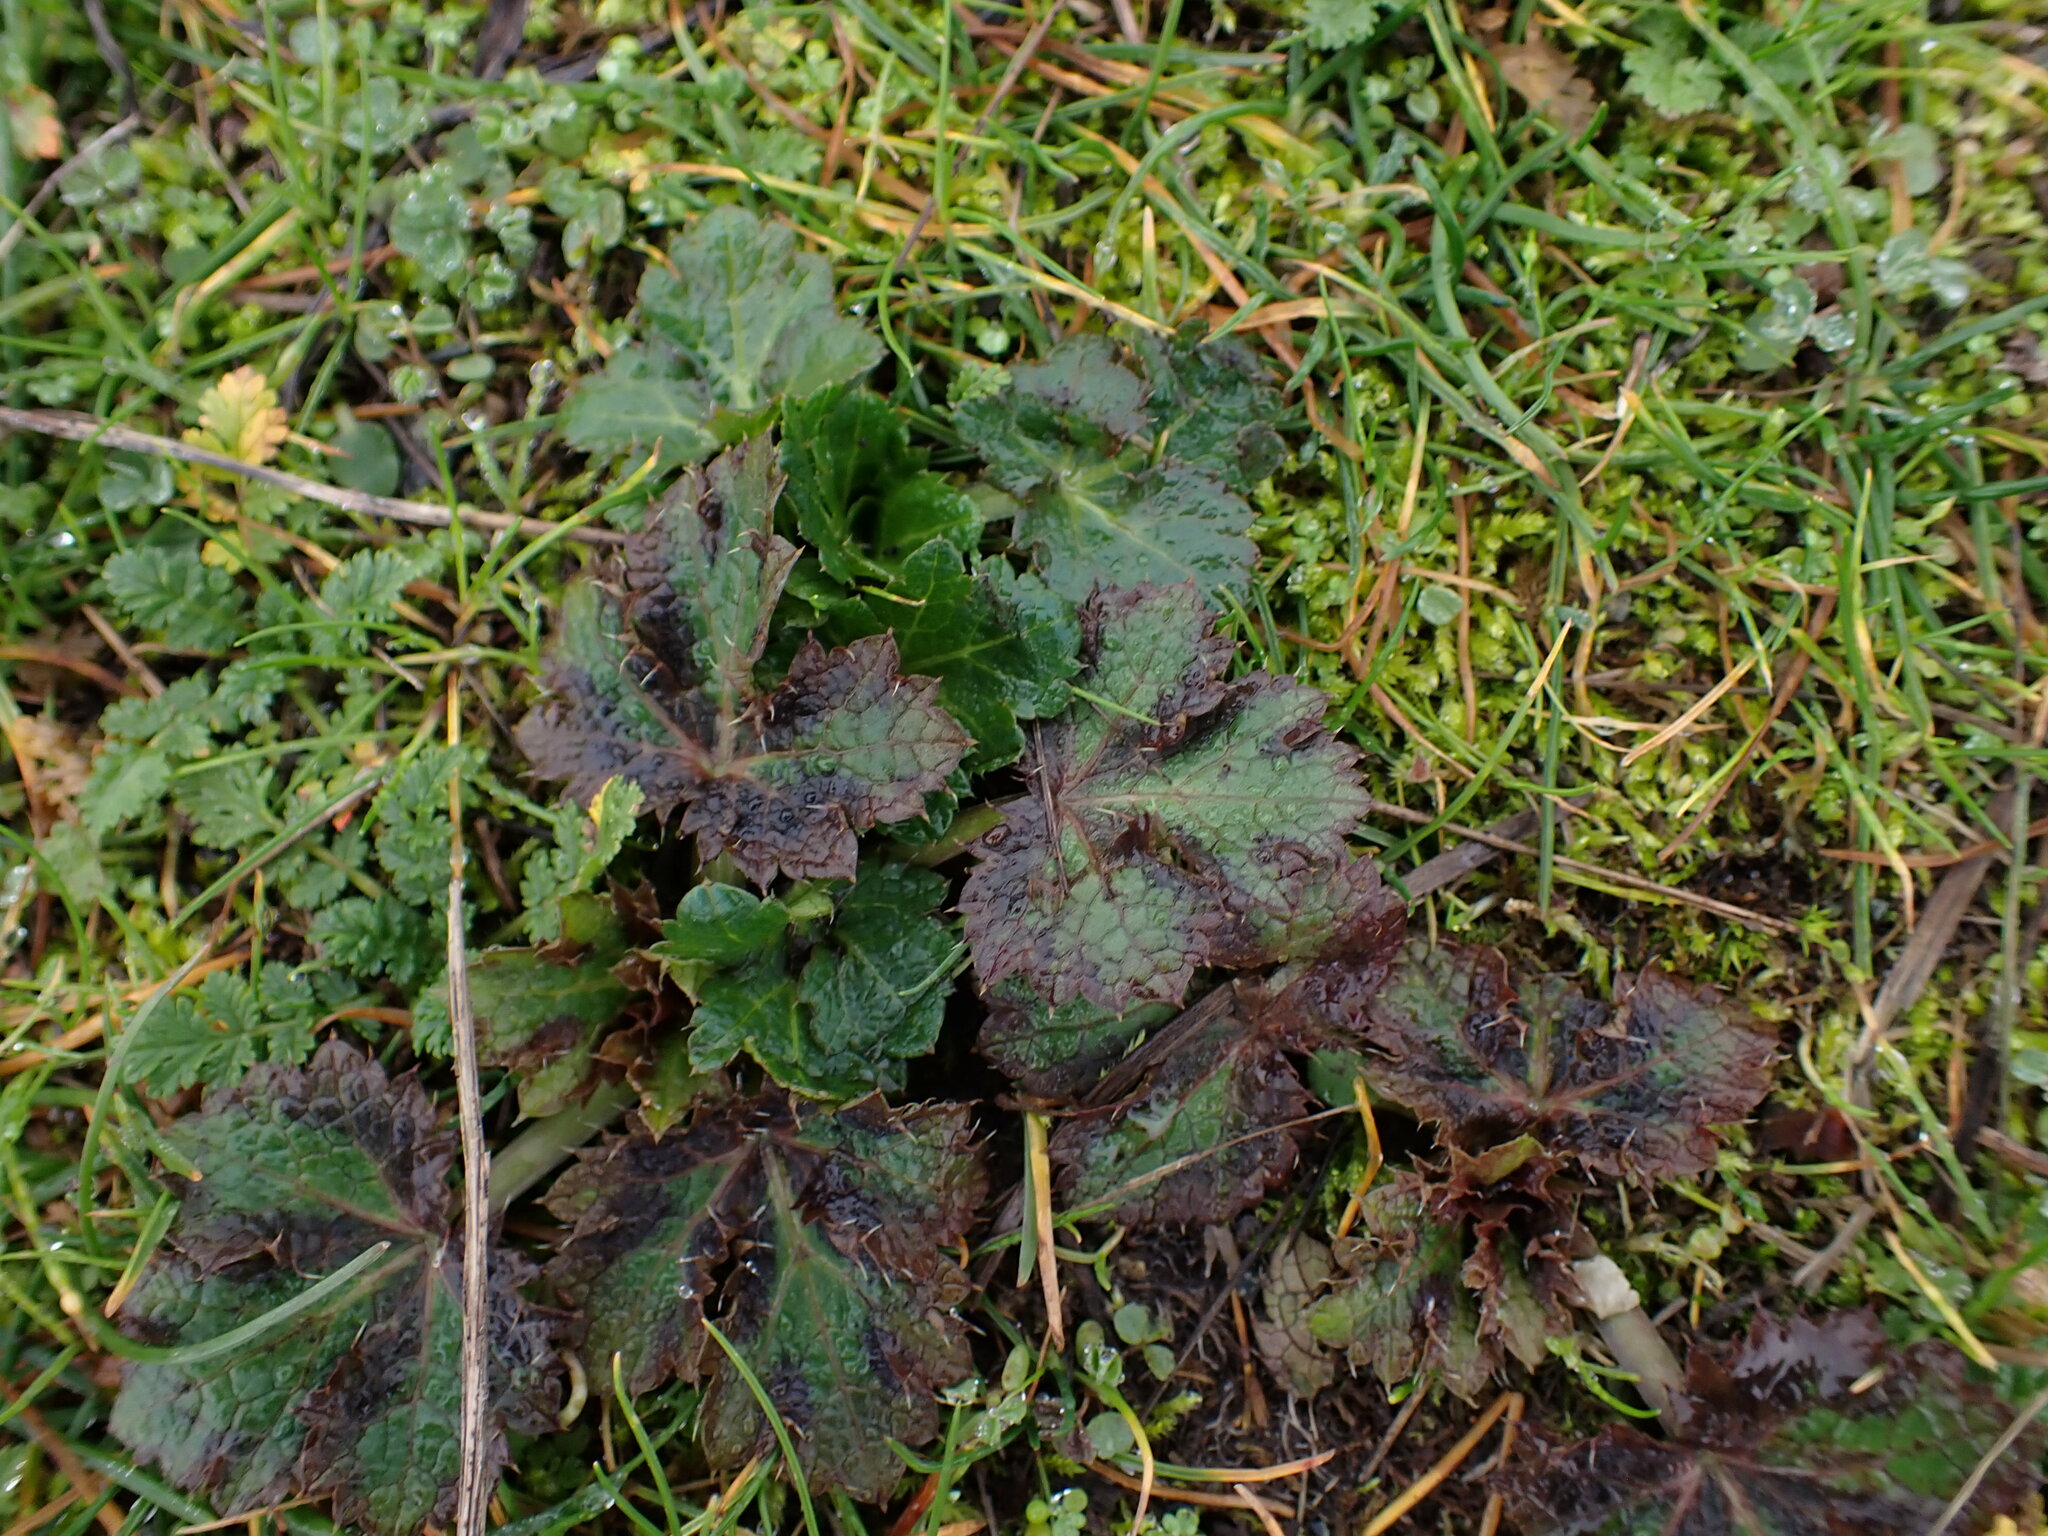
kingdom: Plantae
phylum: Tracheophyta
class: Magnoliopsida
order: Apiales
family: Apiaceae
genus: Sanicula
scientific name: Sanicula crassicaulis
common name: Western snakeroot
